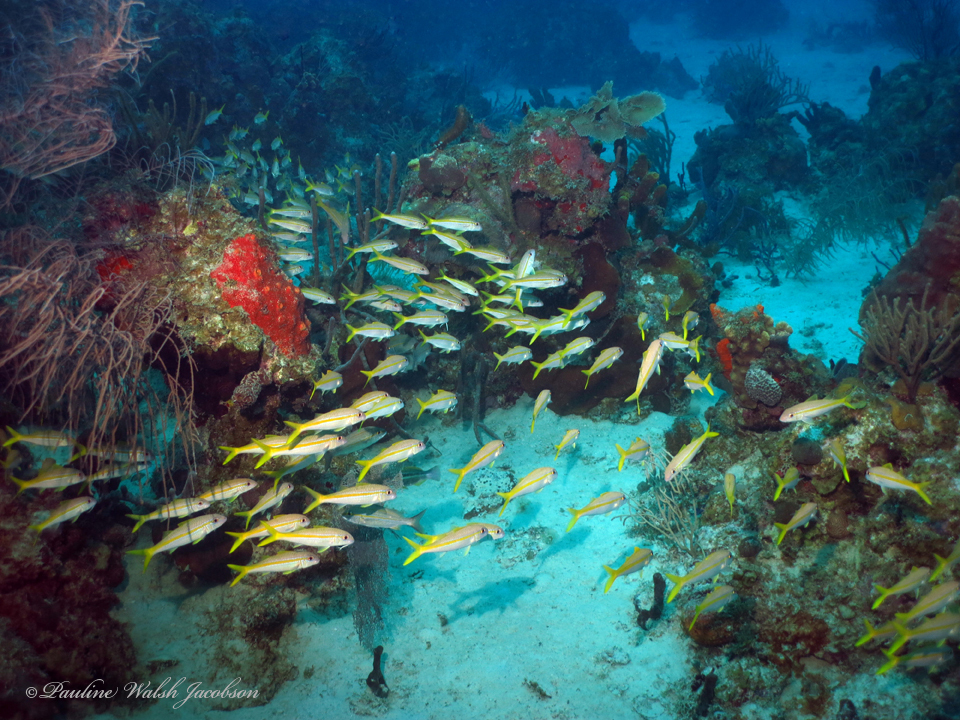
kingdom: Animalia
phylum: Chordata
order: Perciformes
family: Mullidae
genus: Mulloidichthys
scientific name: Mulloidichthys martinicus
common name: Yellow goatfish
